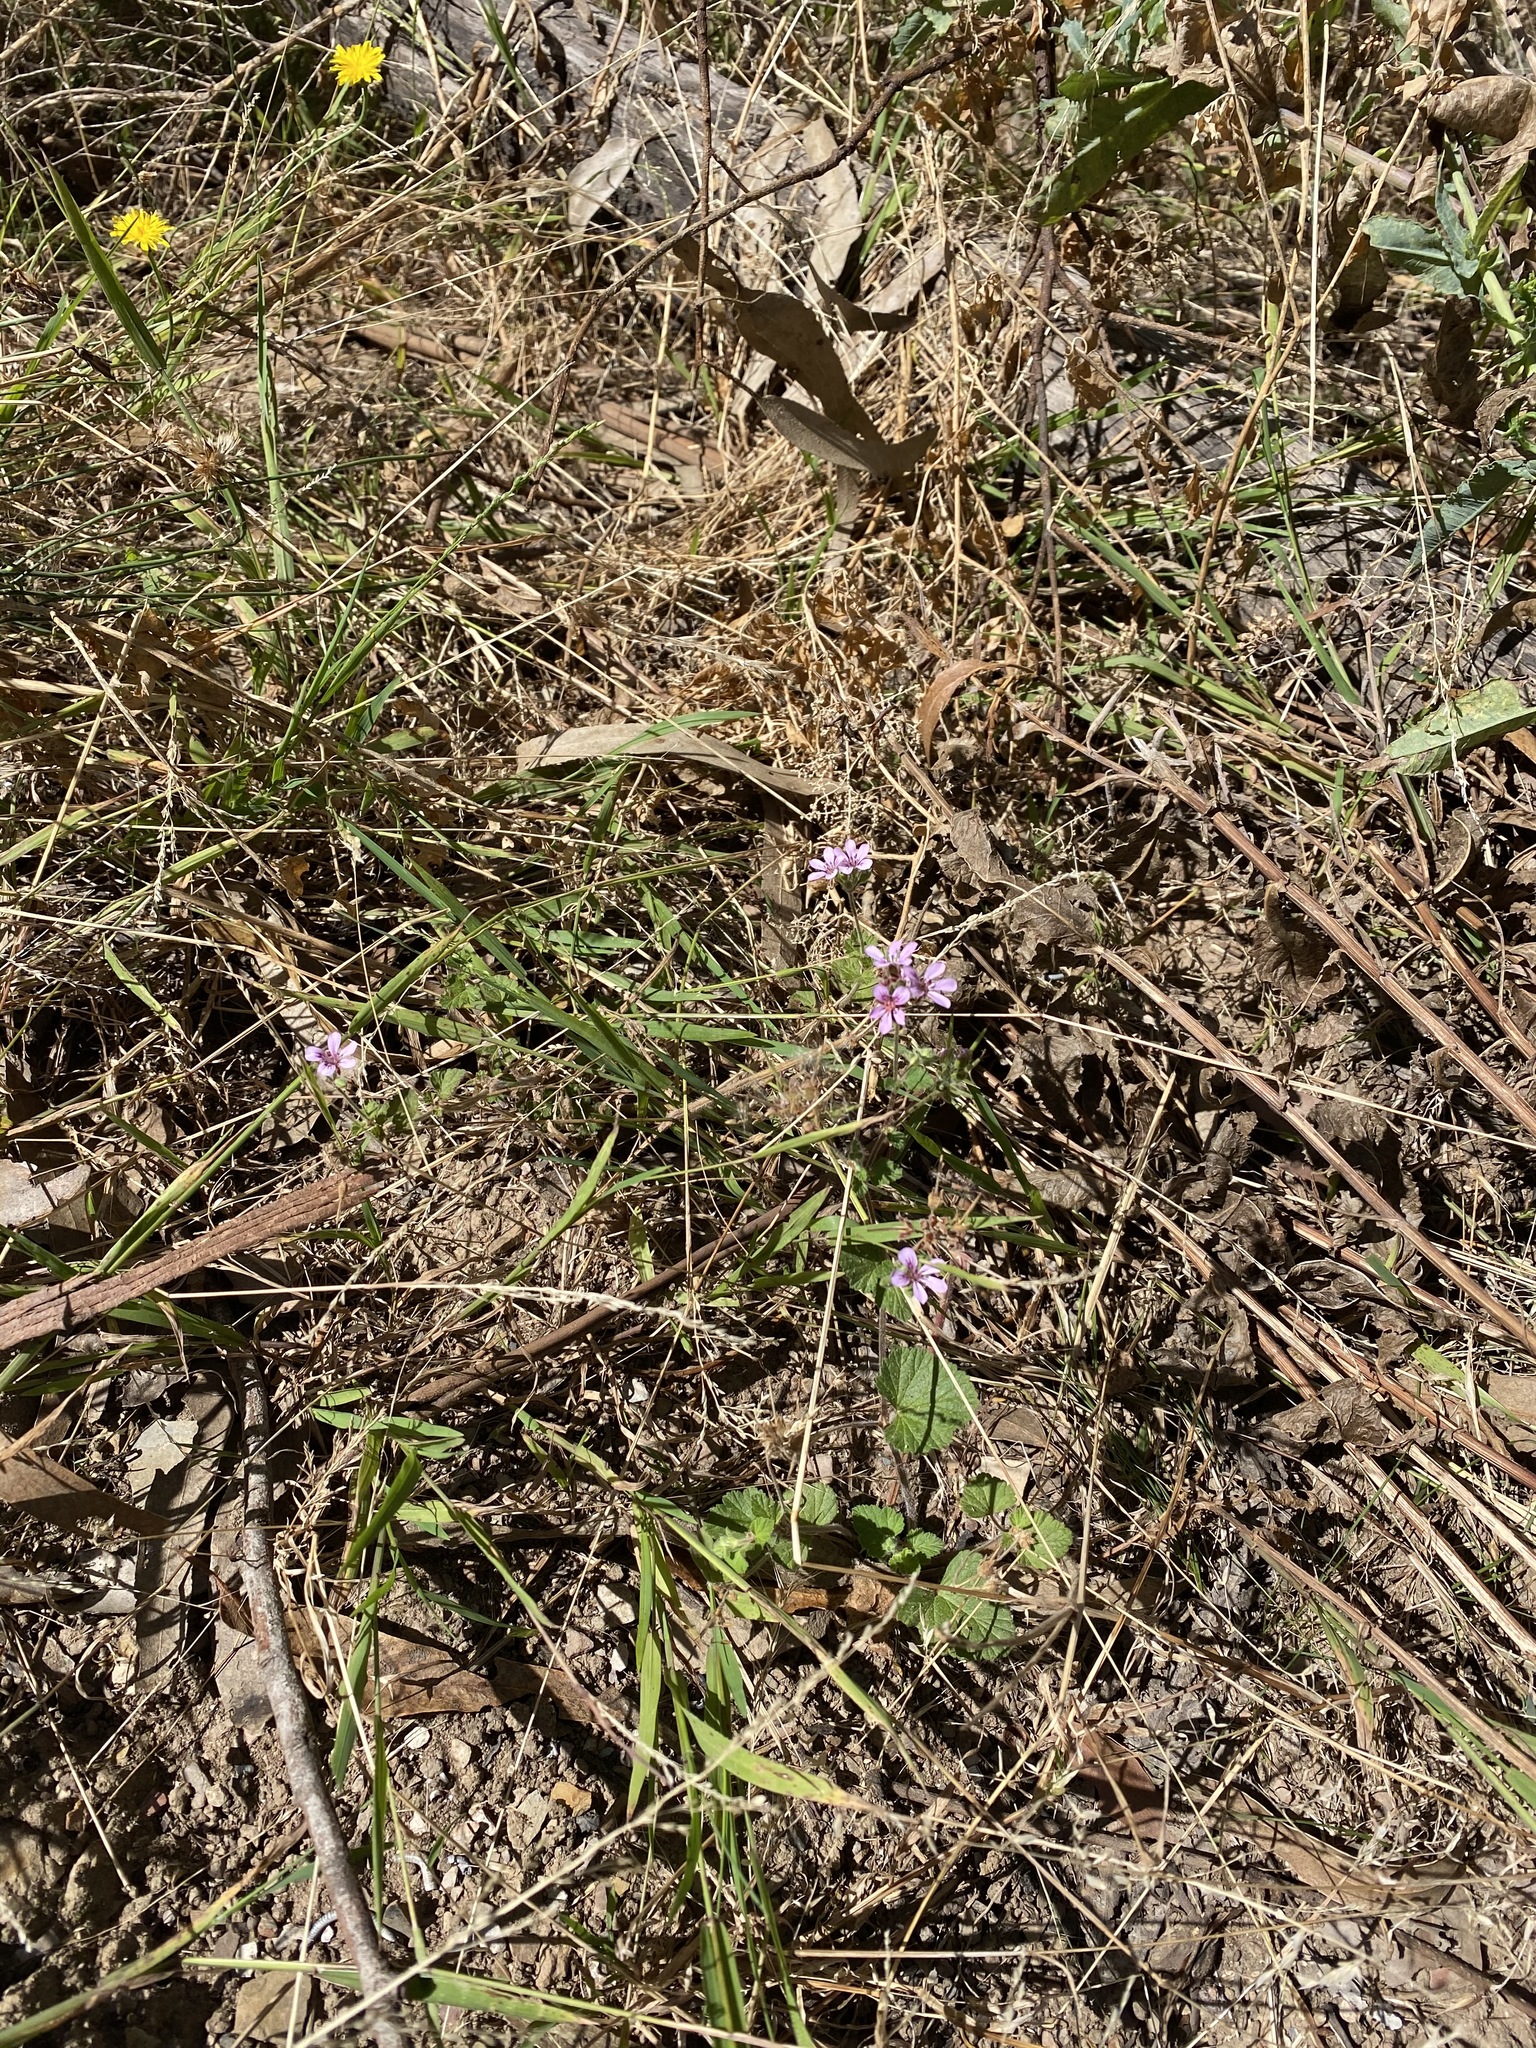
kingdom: Plantae
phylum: Tracheophyta
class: Magnoliopsida
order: Geraniales
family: Geraniaceae
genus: Pelargonium
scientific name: Pelargonium australe
